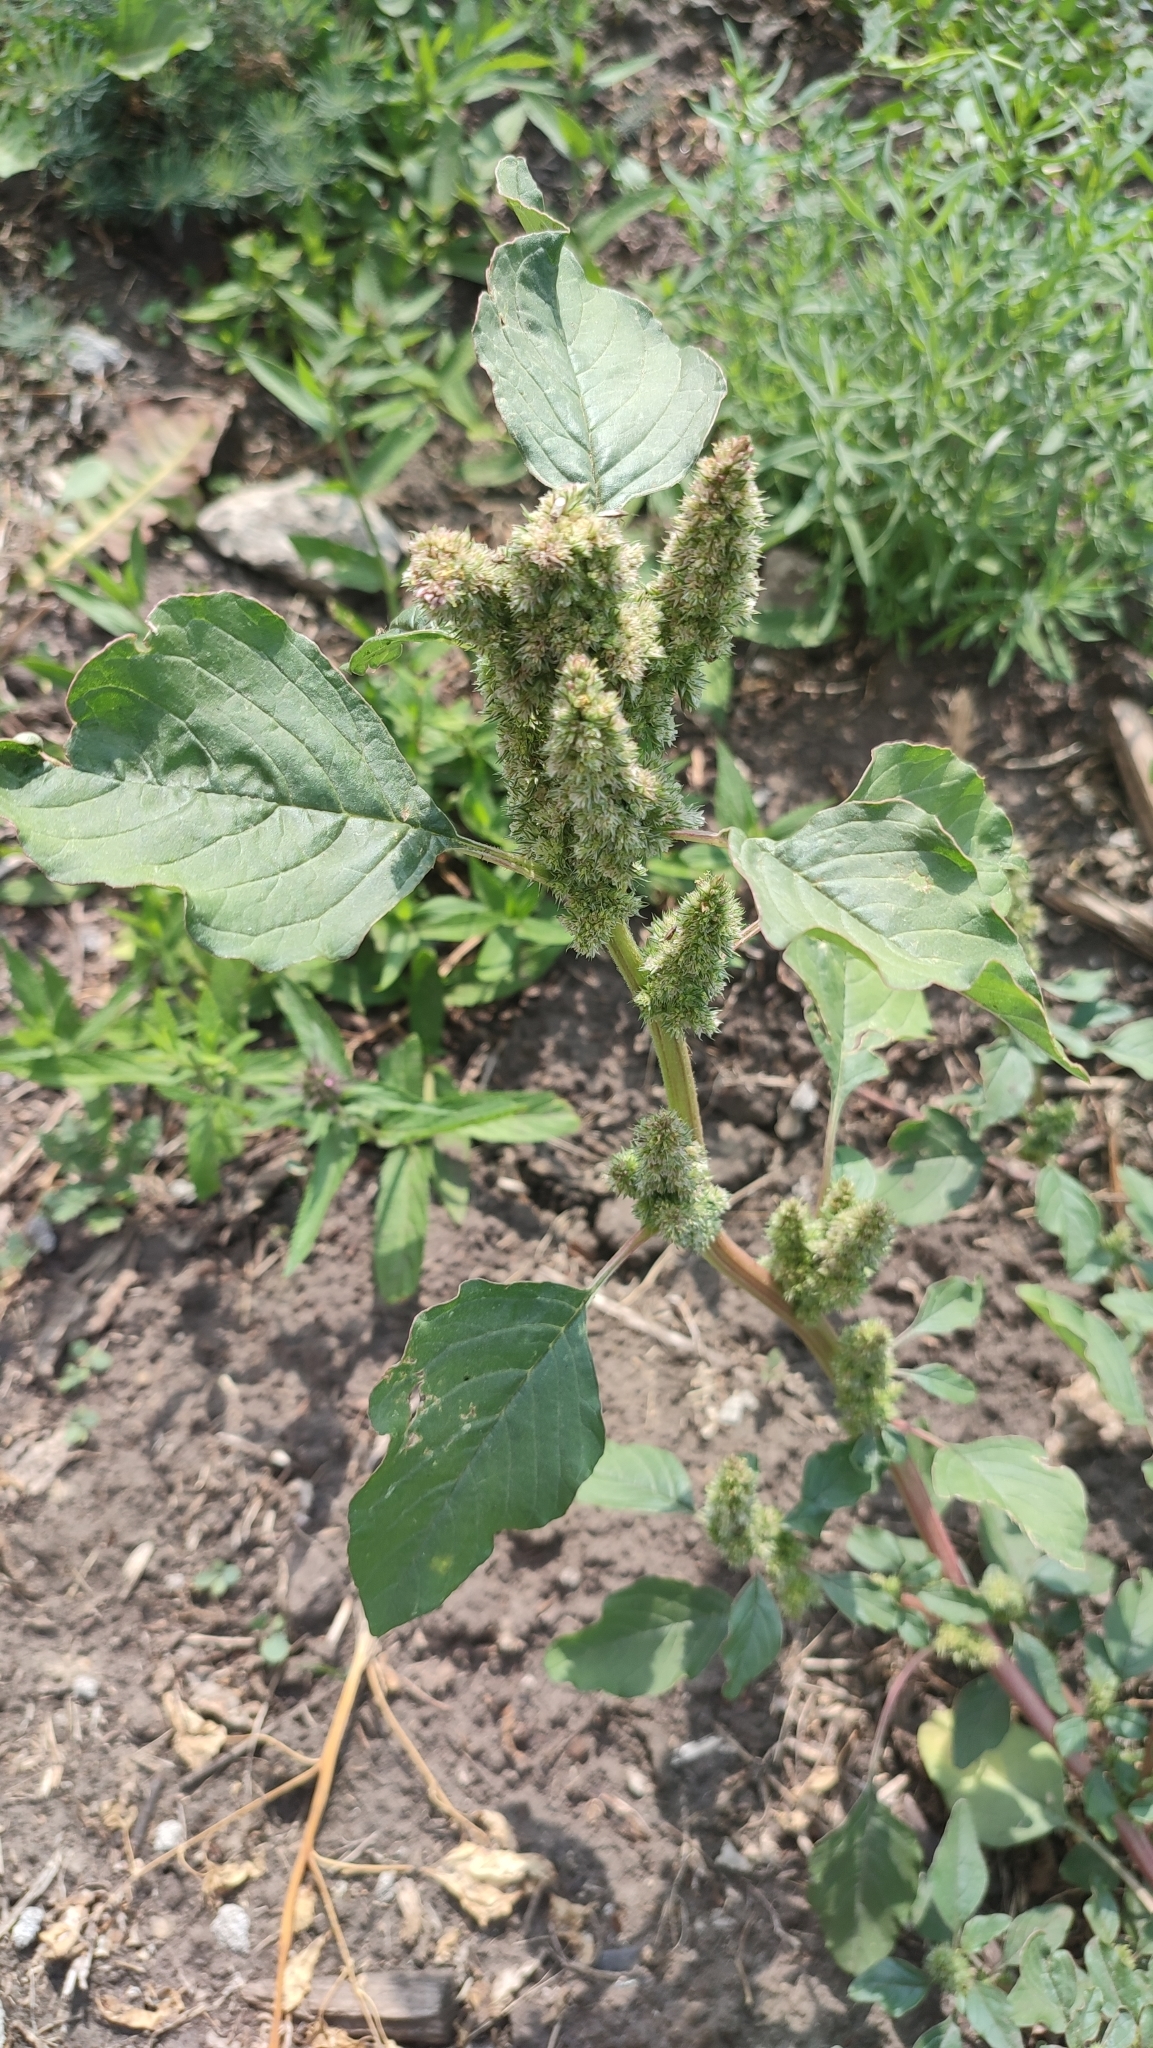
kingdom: Plantae
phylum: Tracheophyta
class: Magnoliopsida
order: Caryophyllales
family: Amaranthaceae
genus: Amaranthus
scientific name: Amaranthus retroflexus
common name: Redroot amaranth
